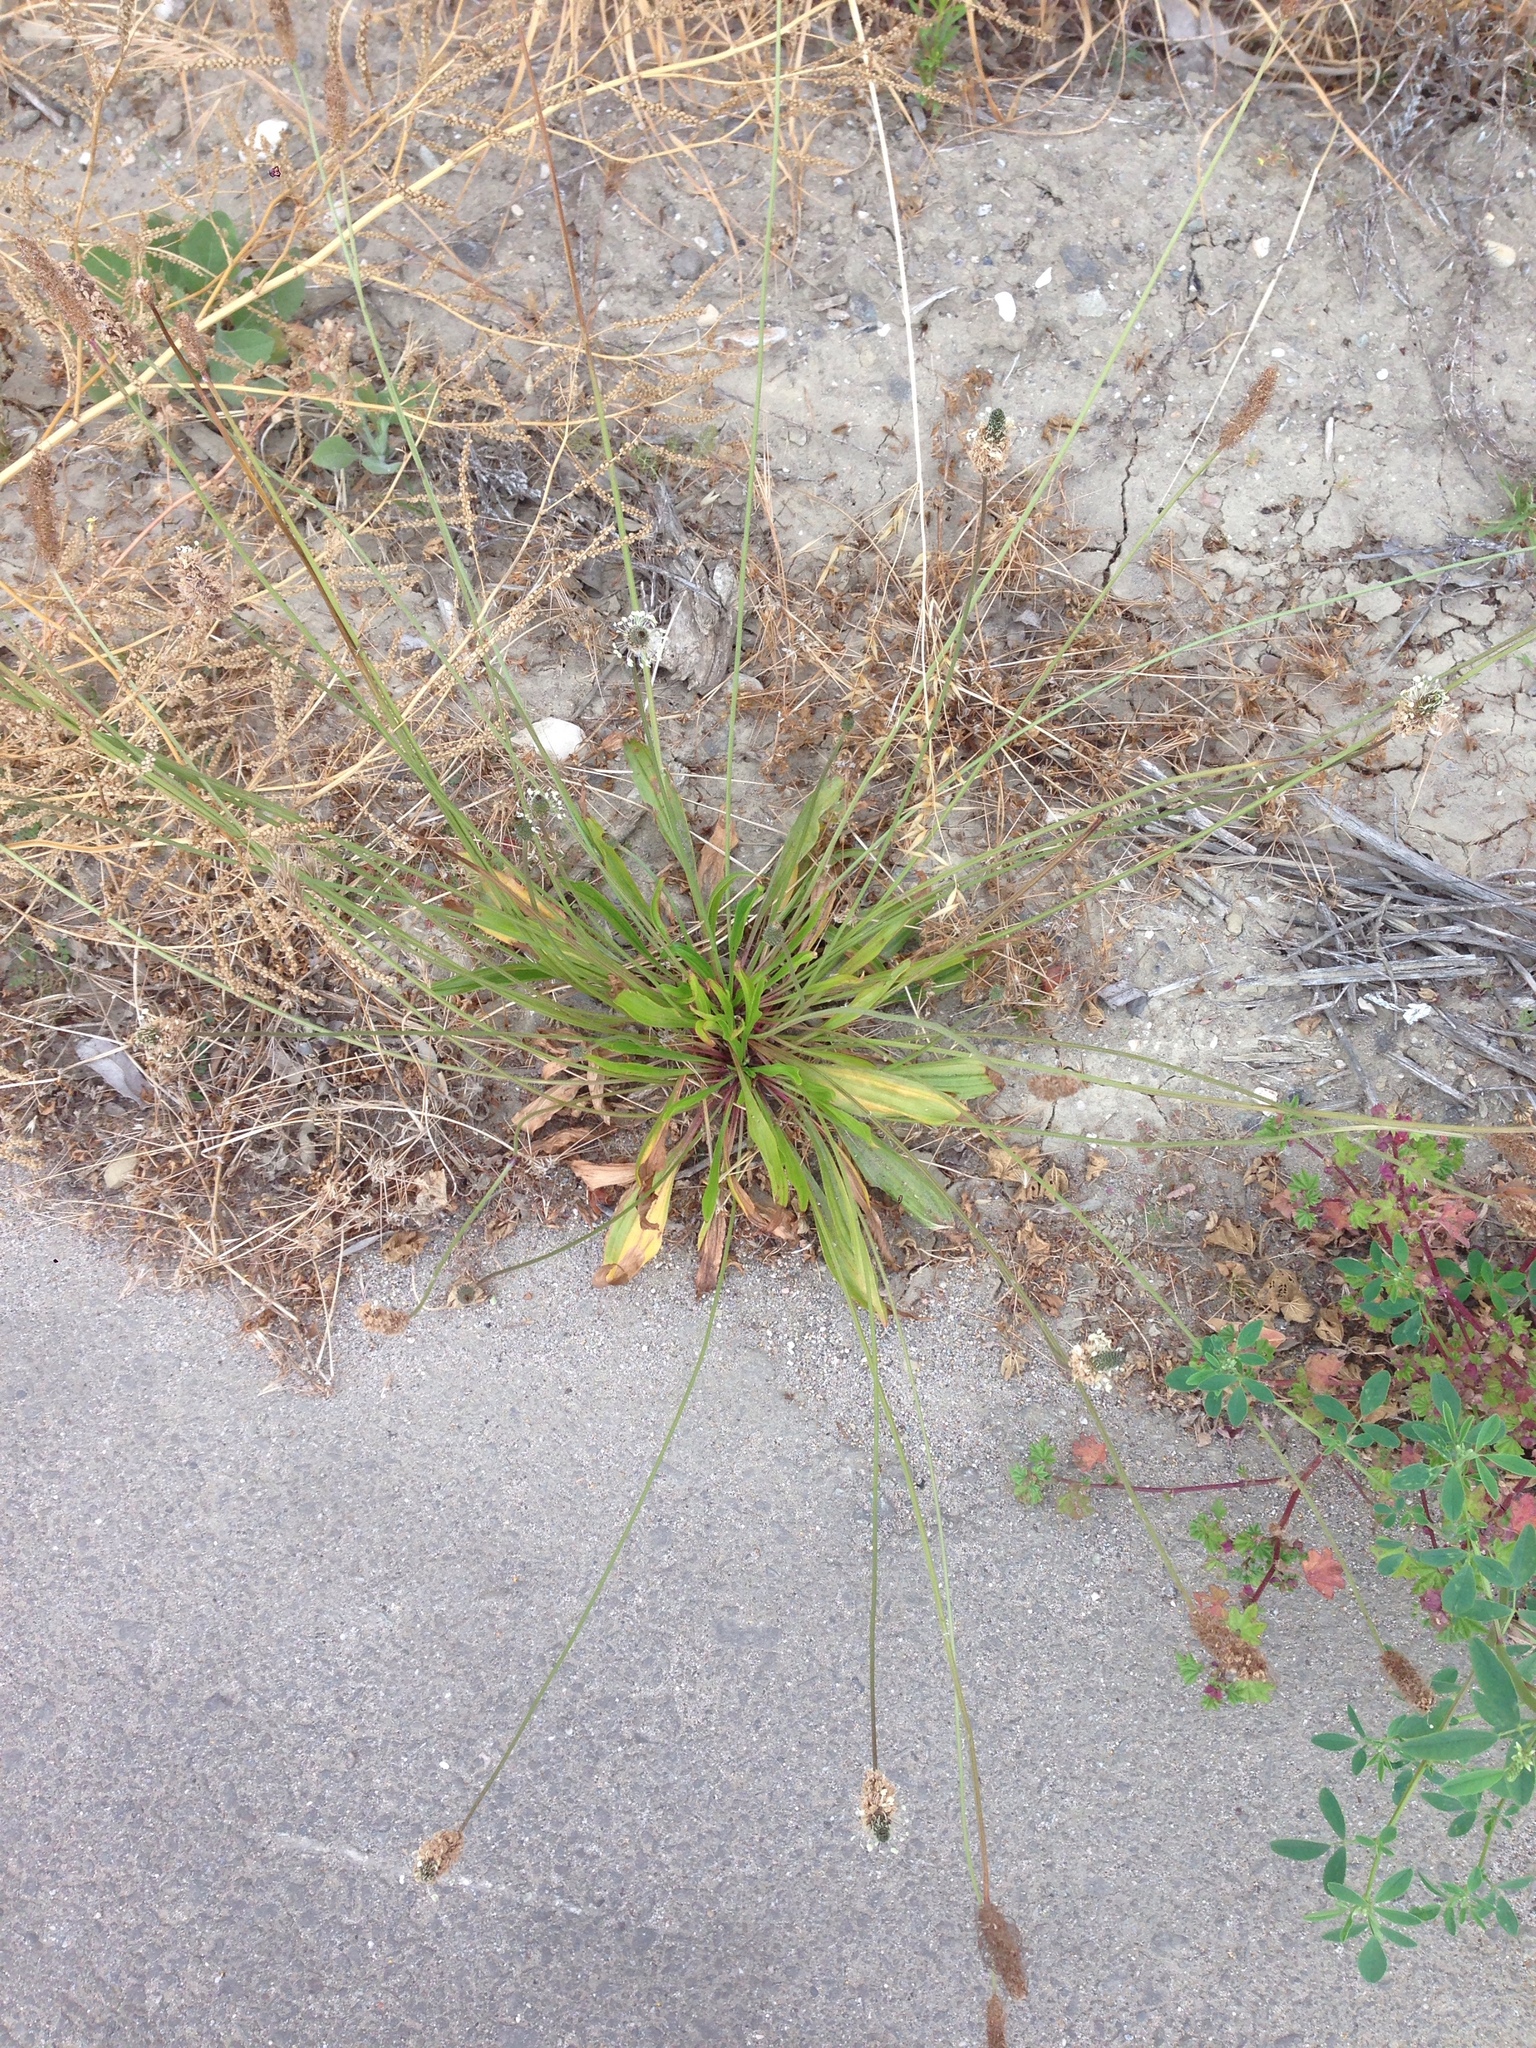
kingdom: Plantae
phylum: Tracheophyta
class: Magnoliopsida
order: Lamiales
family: Plantaginaceae
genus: Plantago
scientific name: Plantago lanceolata
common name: Ribwort plantain
